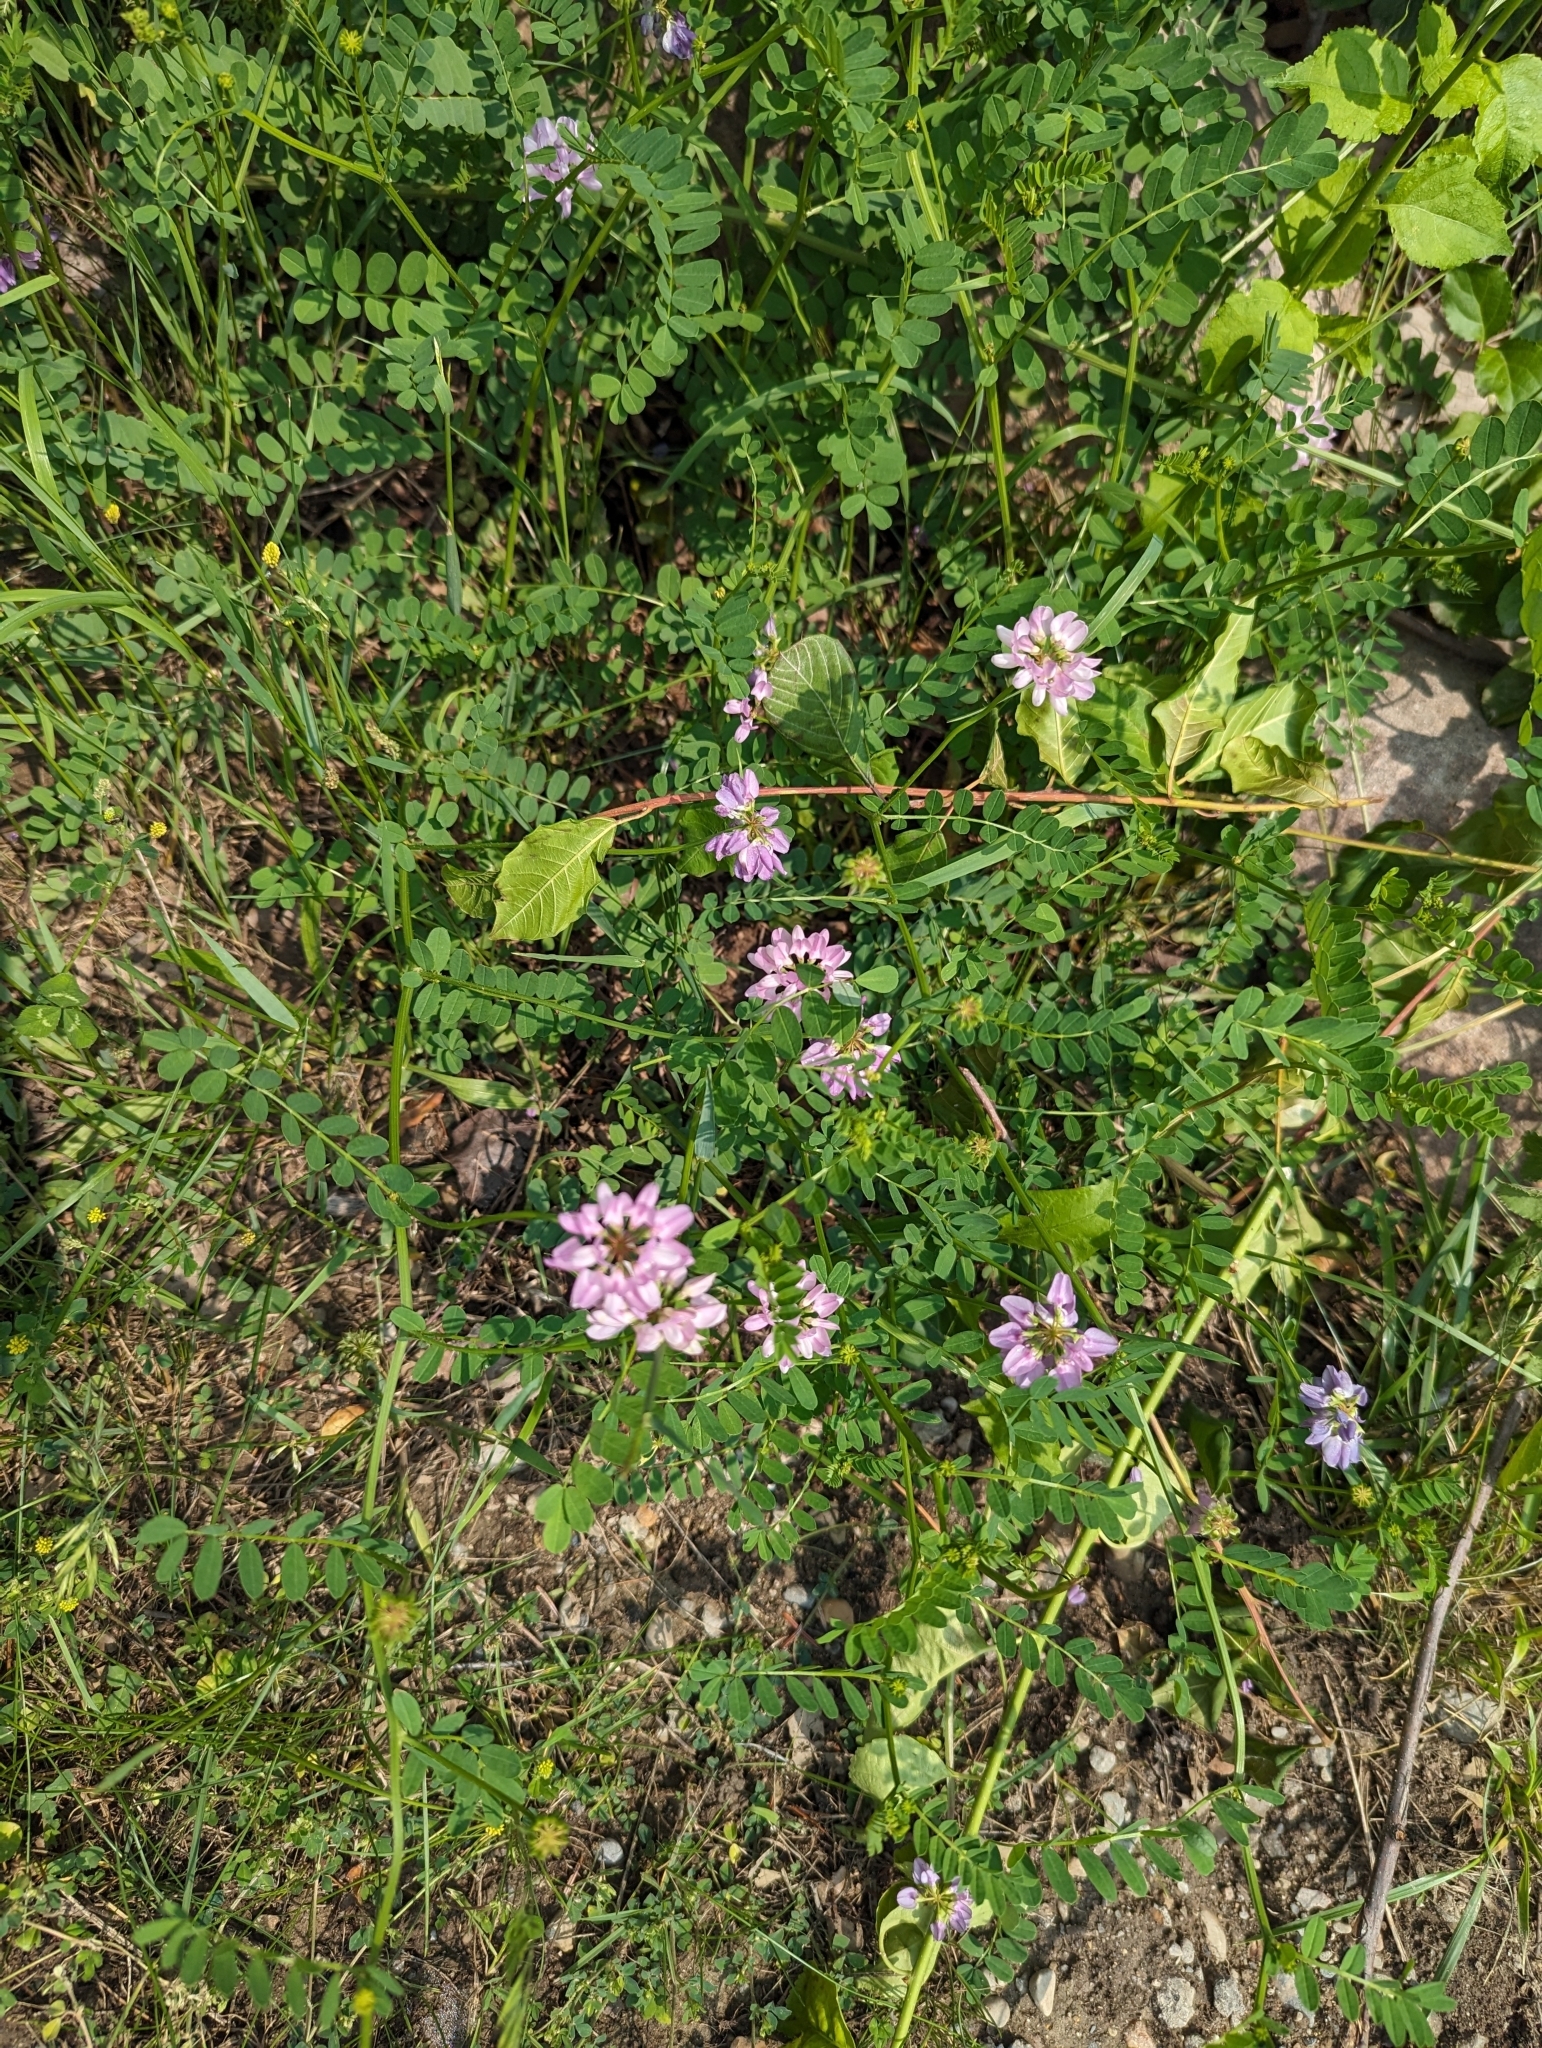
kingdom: Plantae
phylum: Tracheophyta
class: Magnoliopsida
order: Fabales
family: Fabaceae
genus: Coronilla
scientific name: Coronilla varia
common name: Crownvetch
